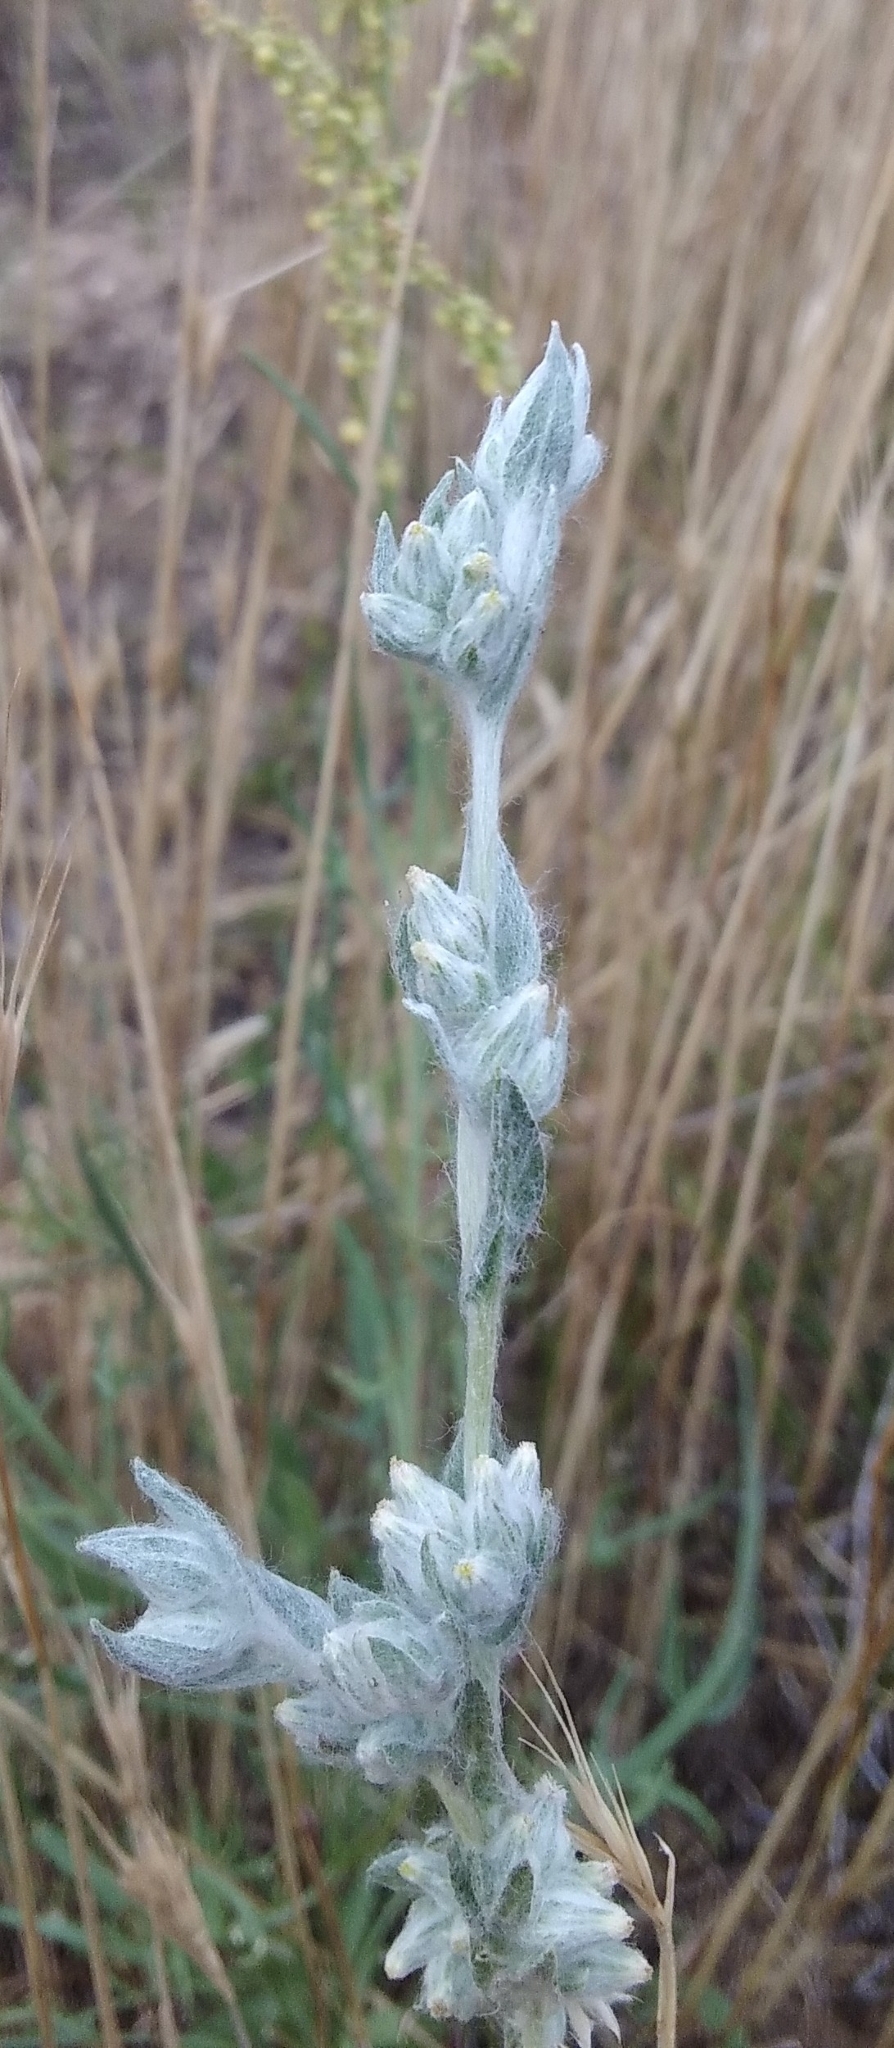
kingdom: Plantae
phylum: Tracheophyta
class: Magnoliopsida
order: Asterales
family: Asteraceae
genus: Filago
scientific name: Filago arvensis
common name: Field cudweed
